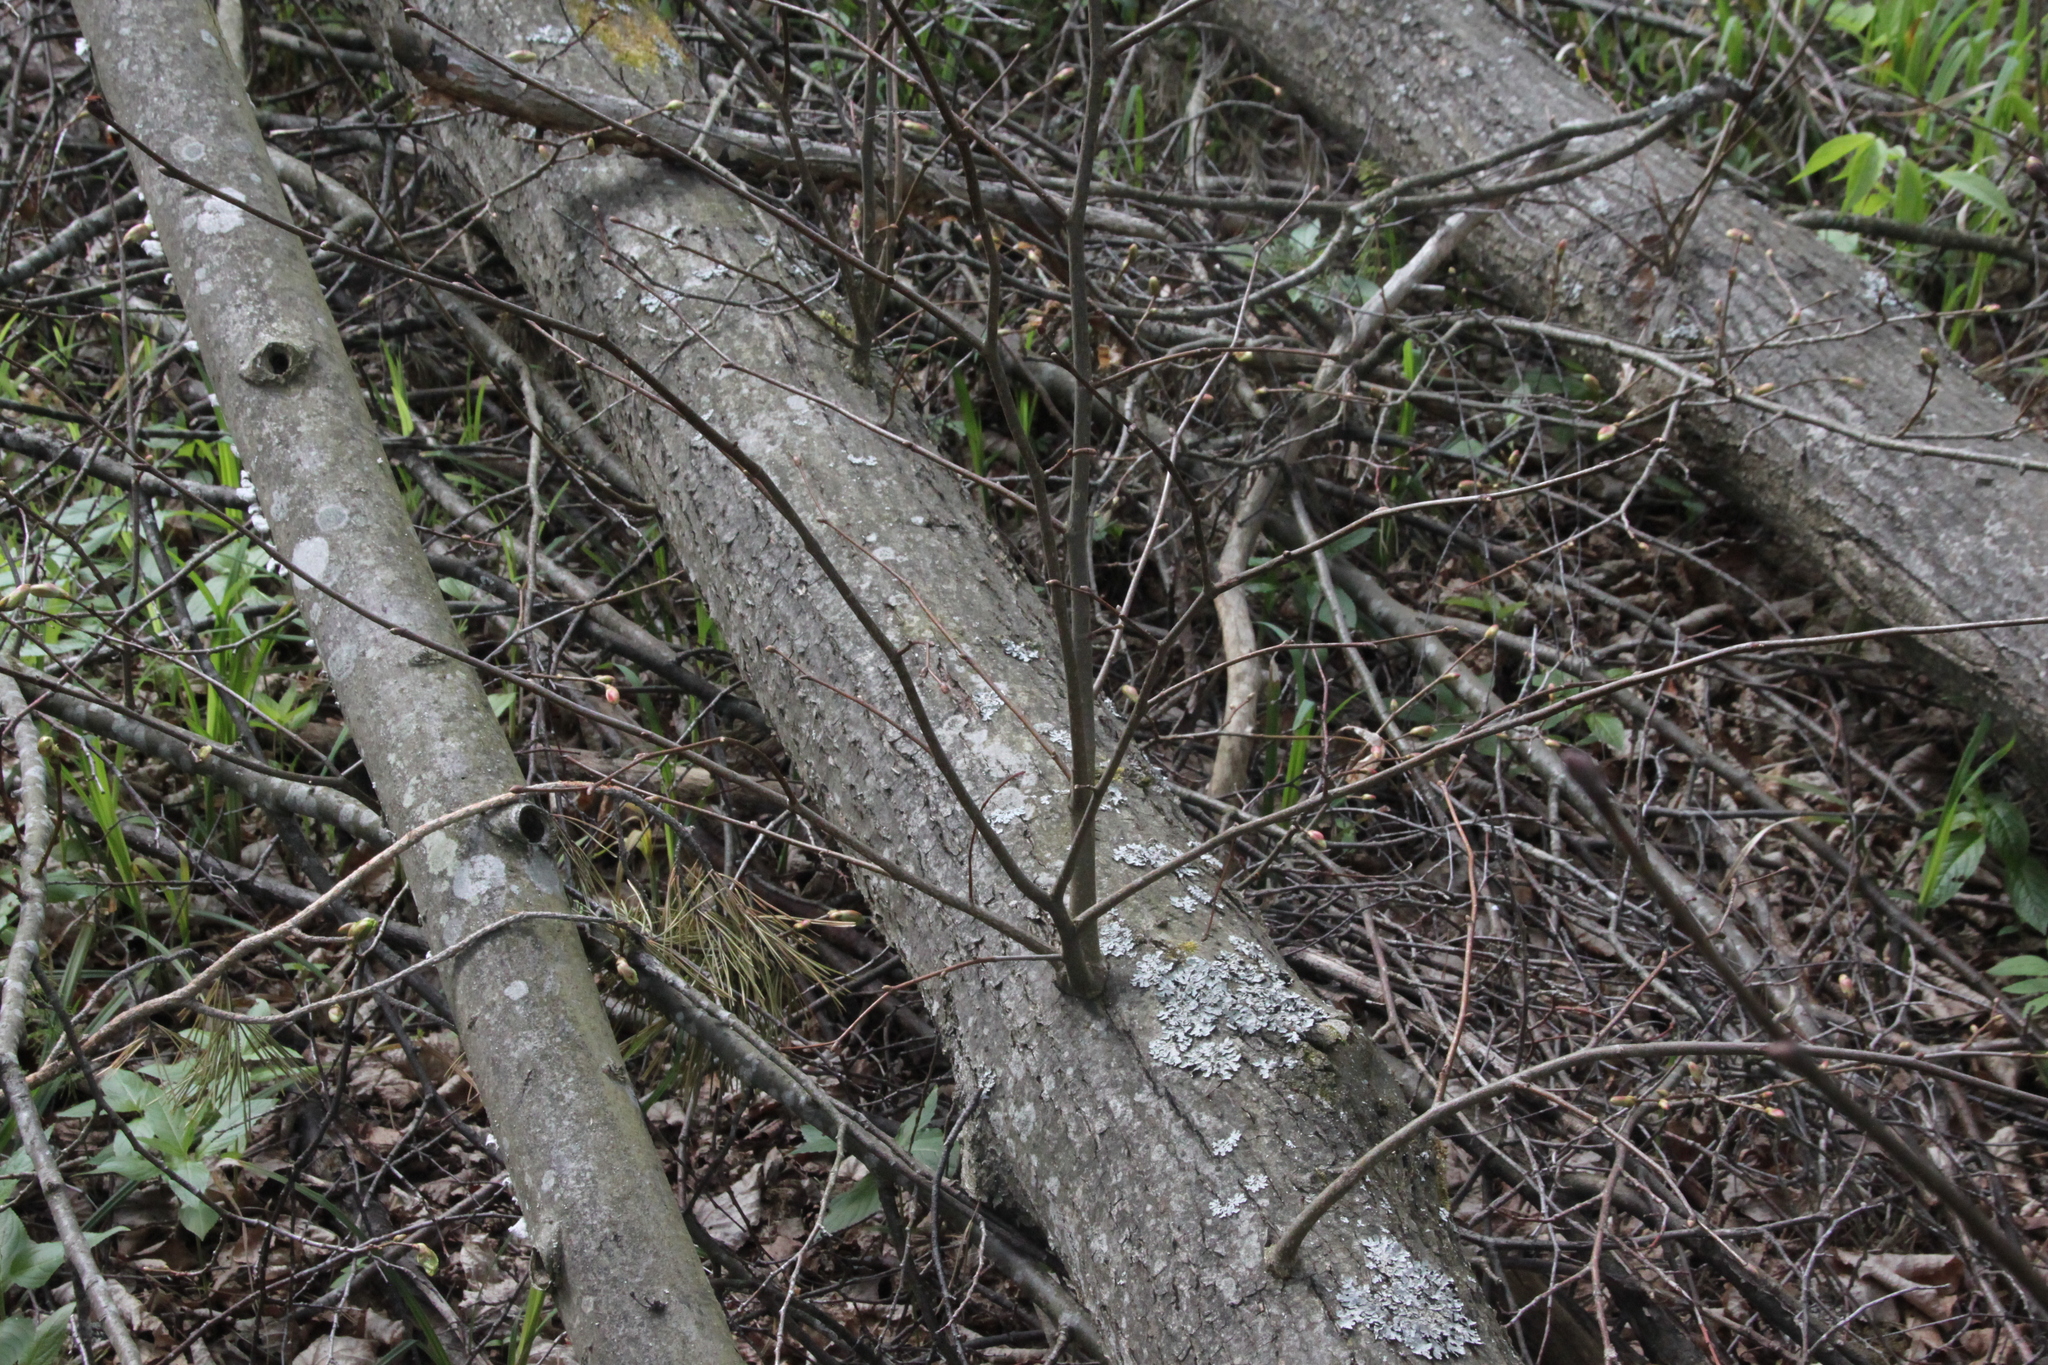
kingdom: Plantae
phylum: Tracheophyta
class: Magnoliopsida
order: Malvales
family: Malvaceae
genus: Tilia
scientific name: Tilia cordata
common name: Small-leaved lime
